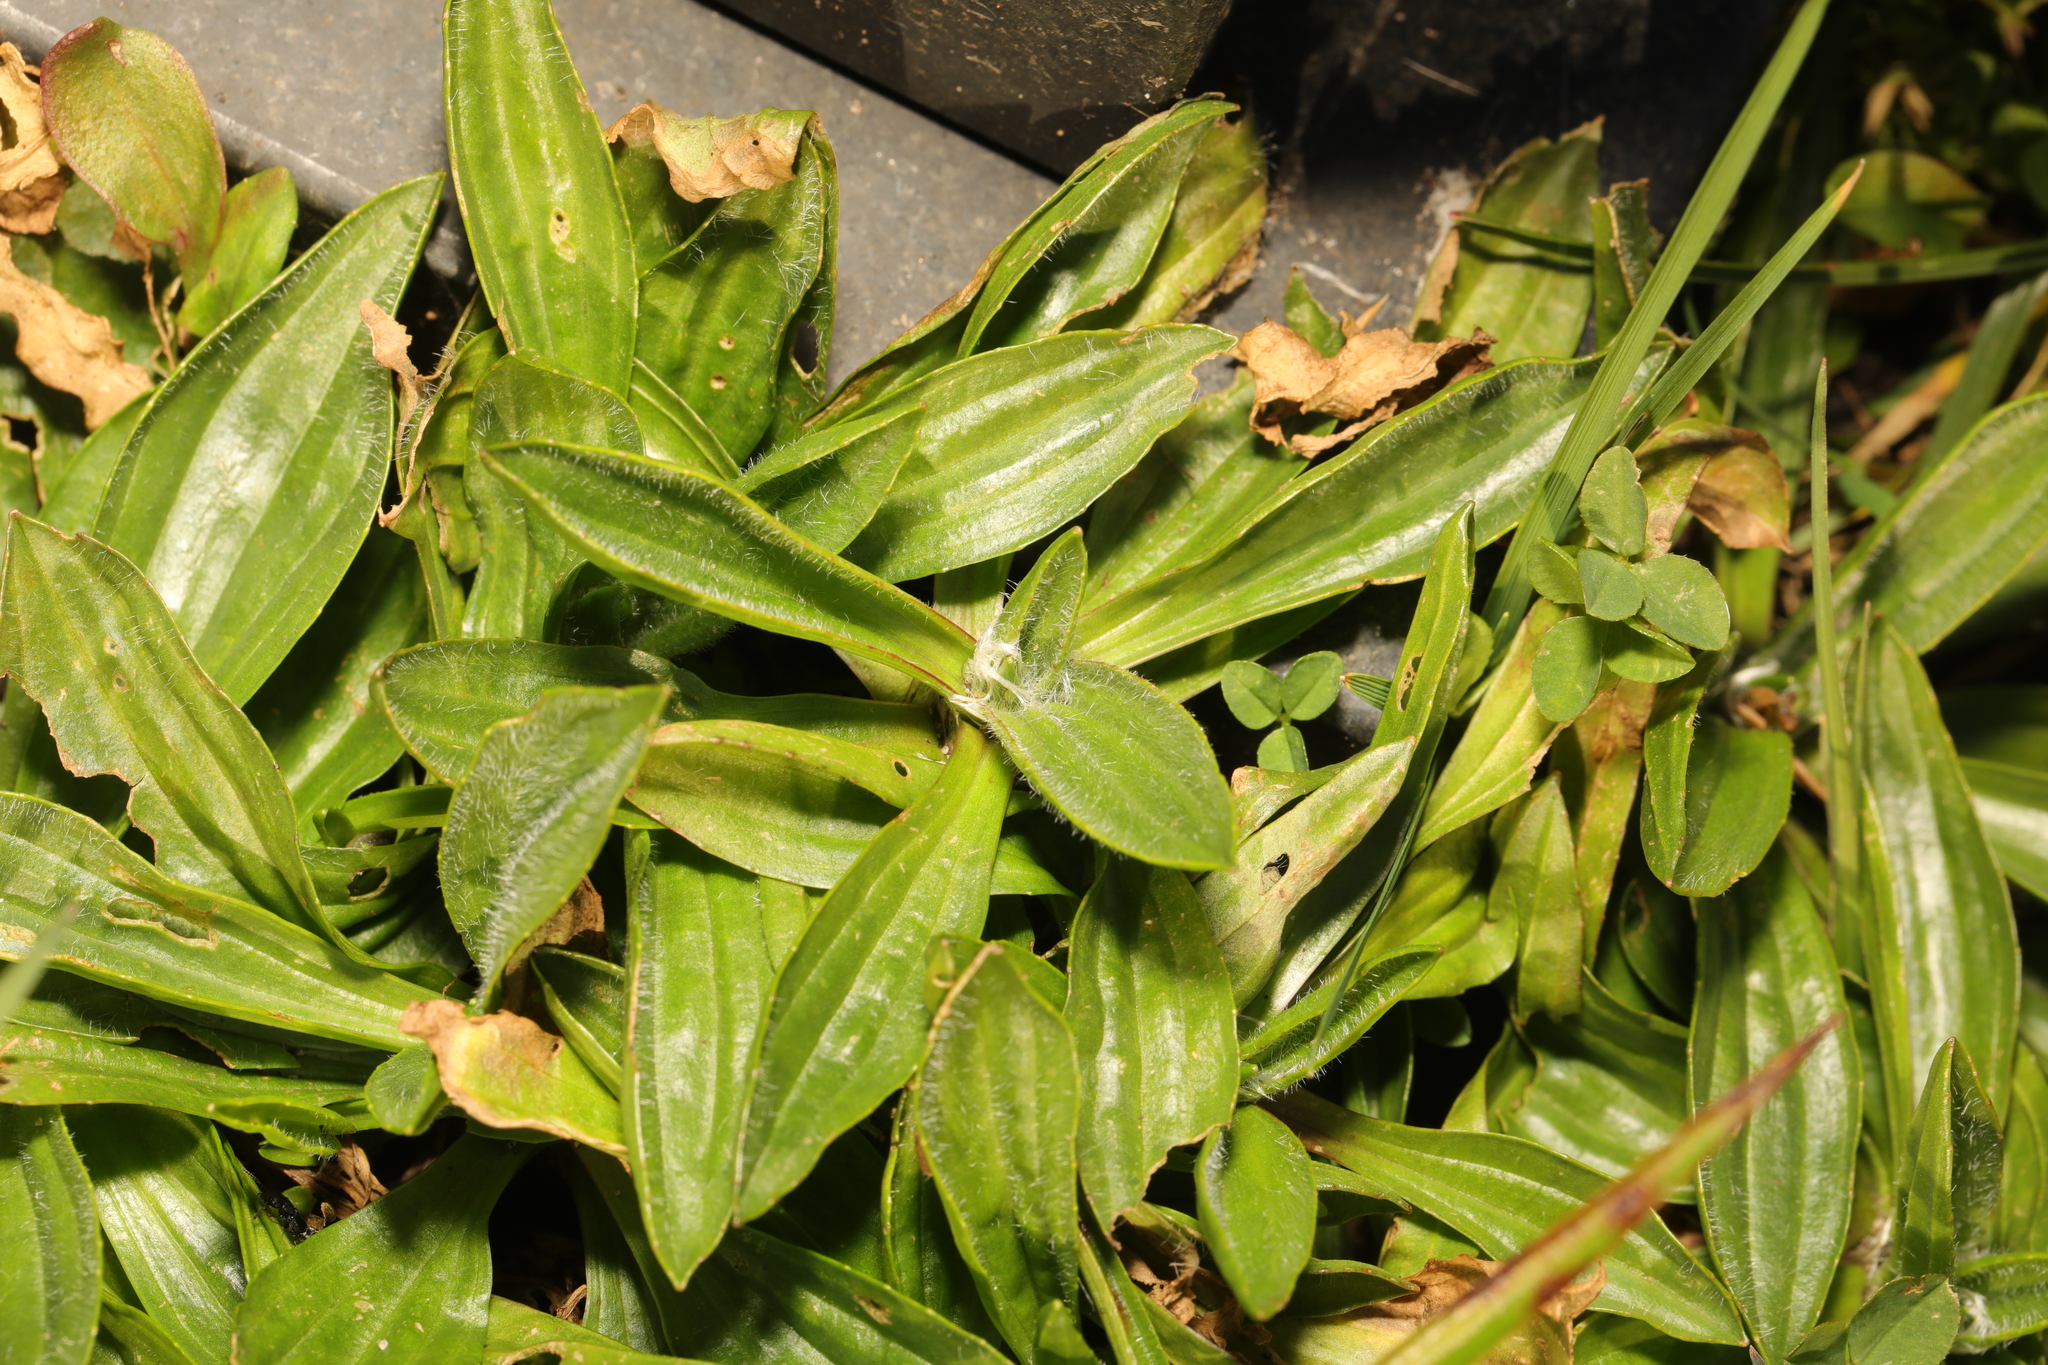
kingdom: Plantae
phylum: Tracheophyta
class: Magnoliopsida
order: Lamiales
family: Plantaginaceae
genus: Plantago
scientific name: Plantago lanceolata
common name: Ribwort plantain
